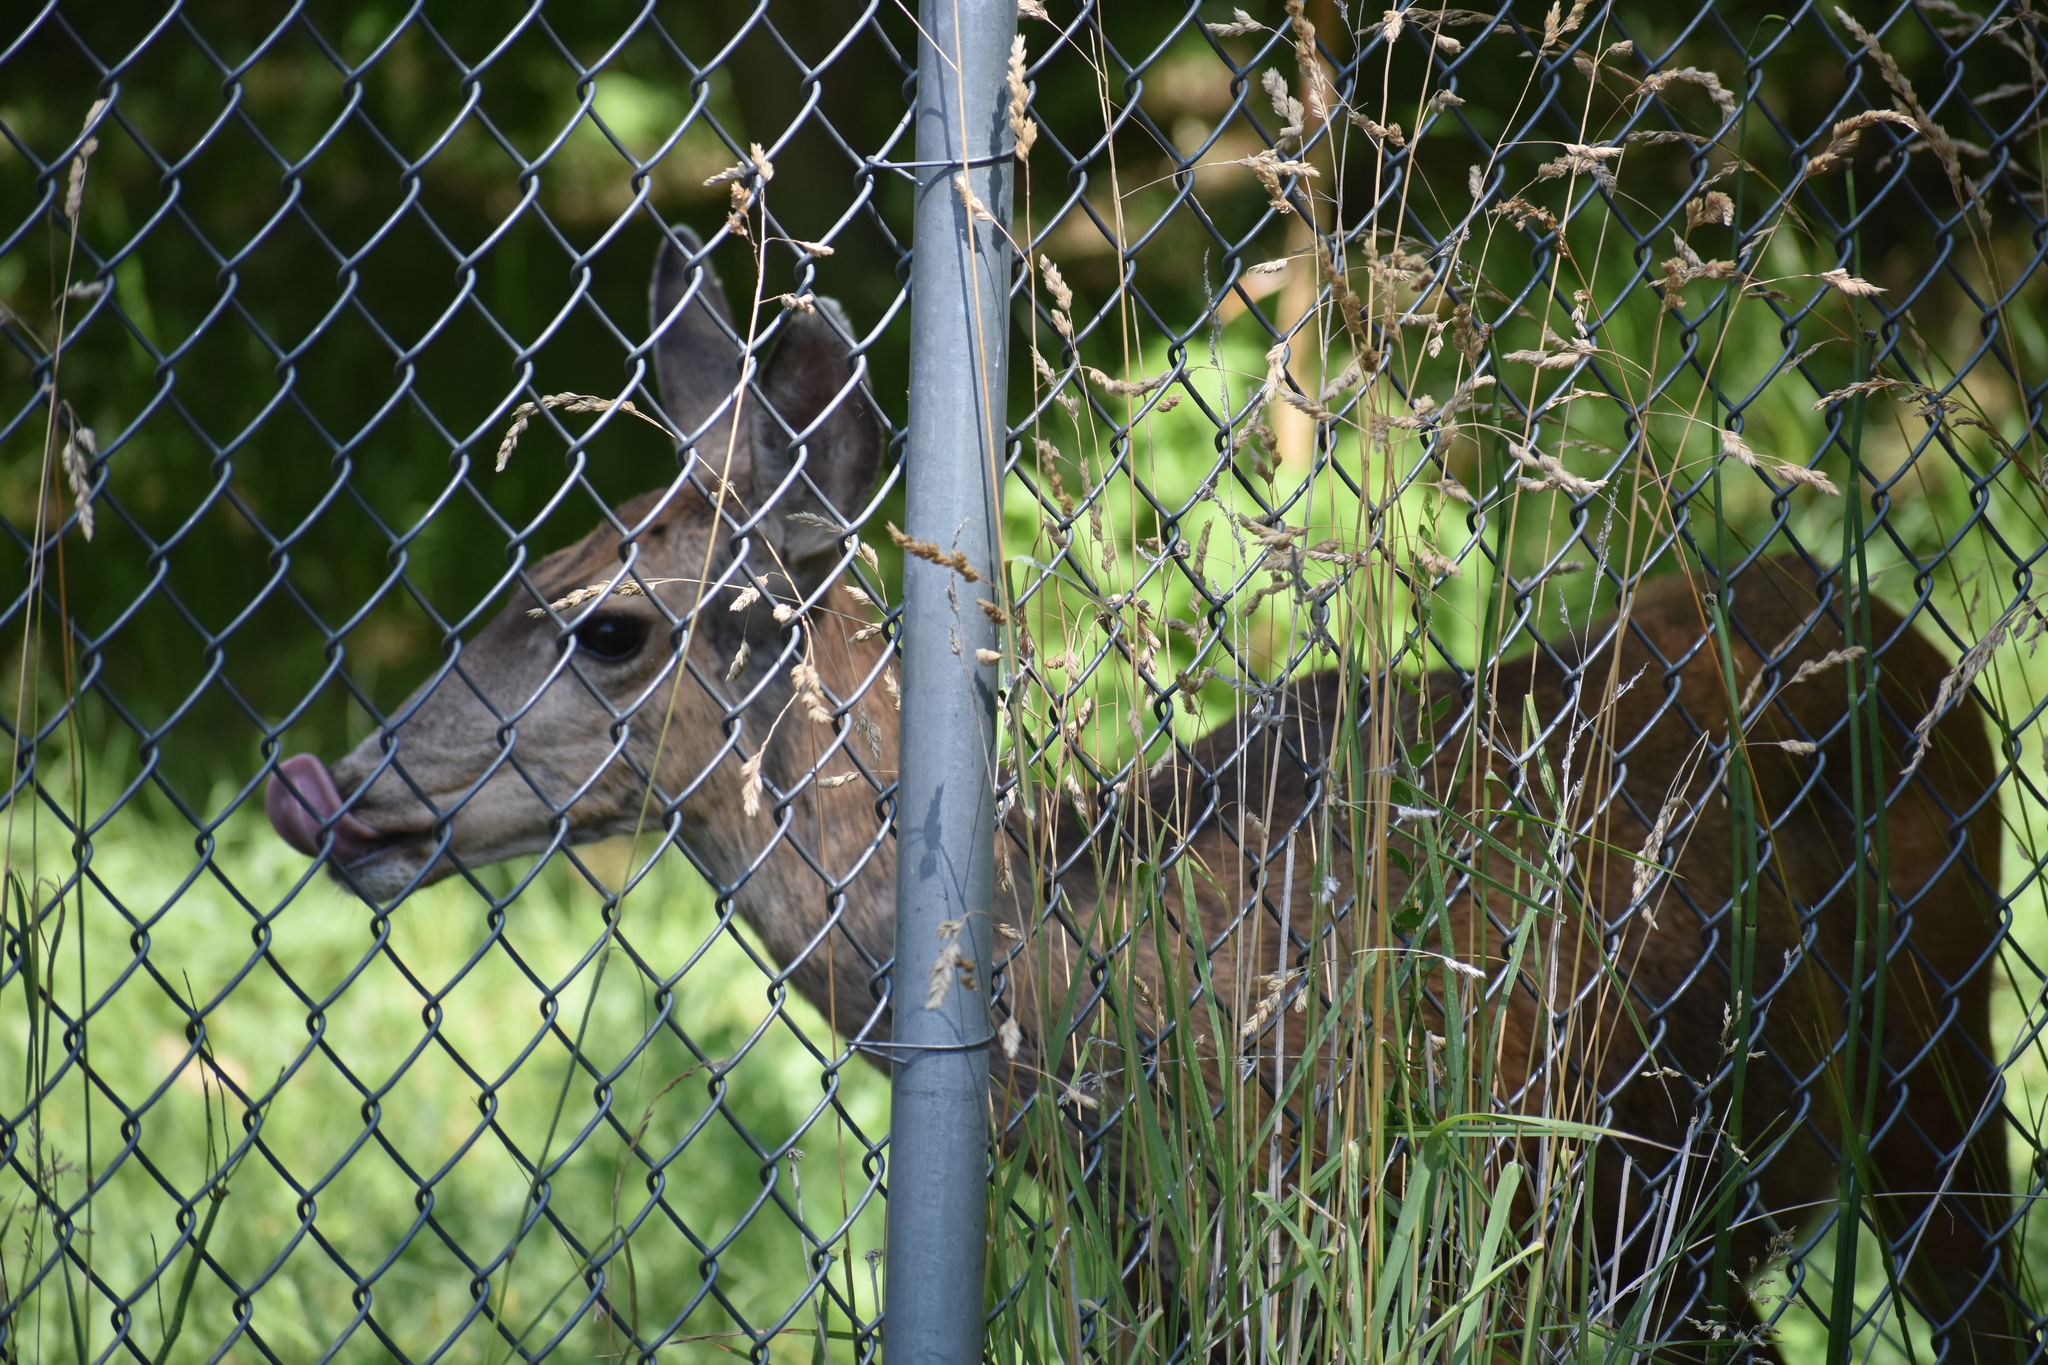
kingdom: Animalia
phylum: Chordata
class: Mammalia
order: Artiodactyla
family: Cervidae
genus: Odocoileus
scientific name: Odocoileus hemionus
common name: Mule deer
